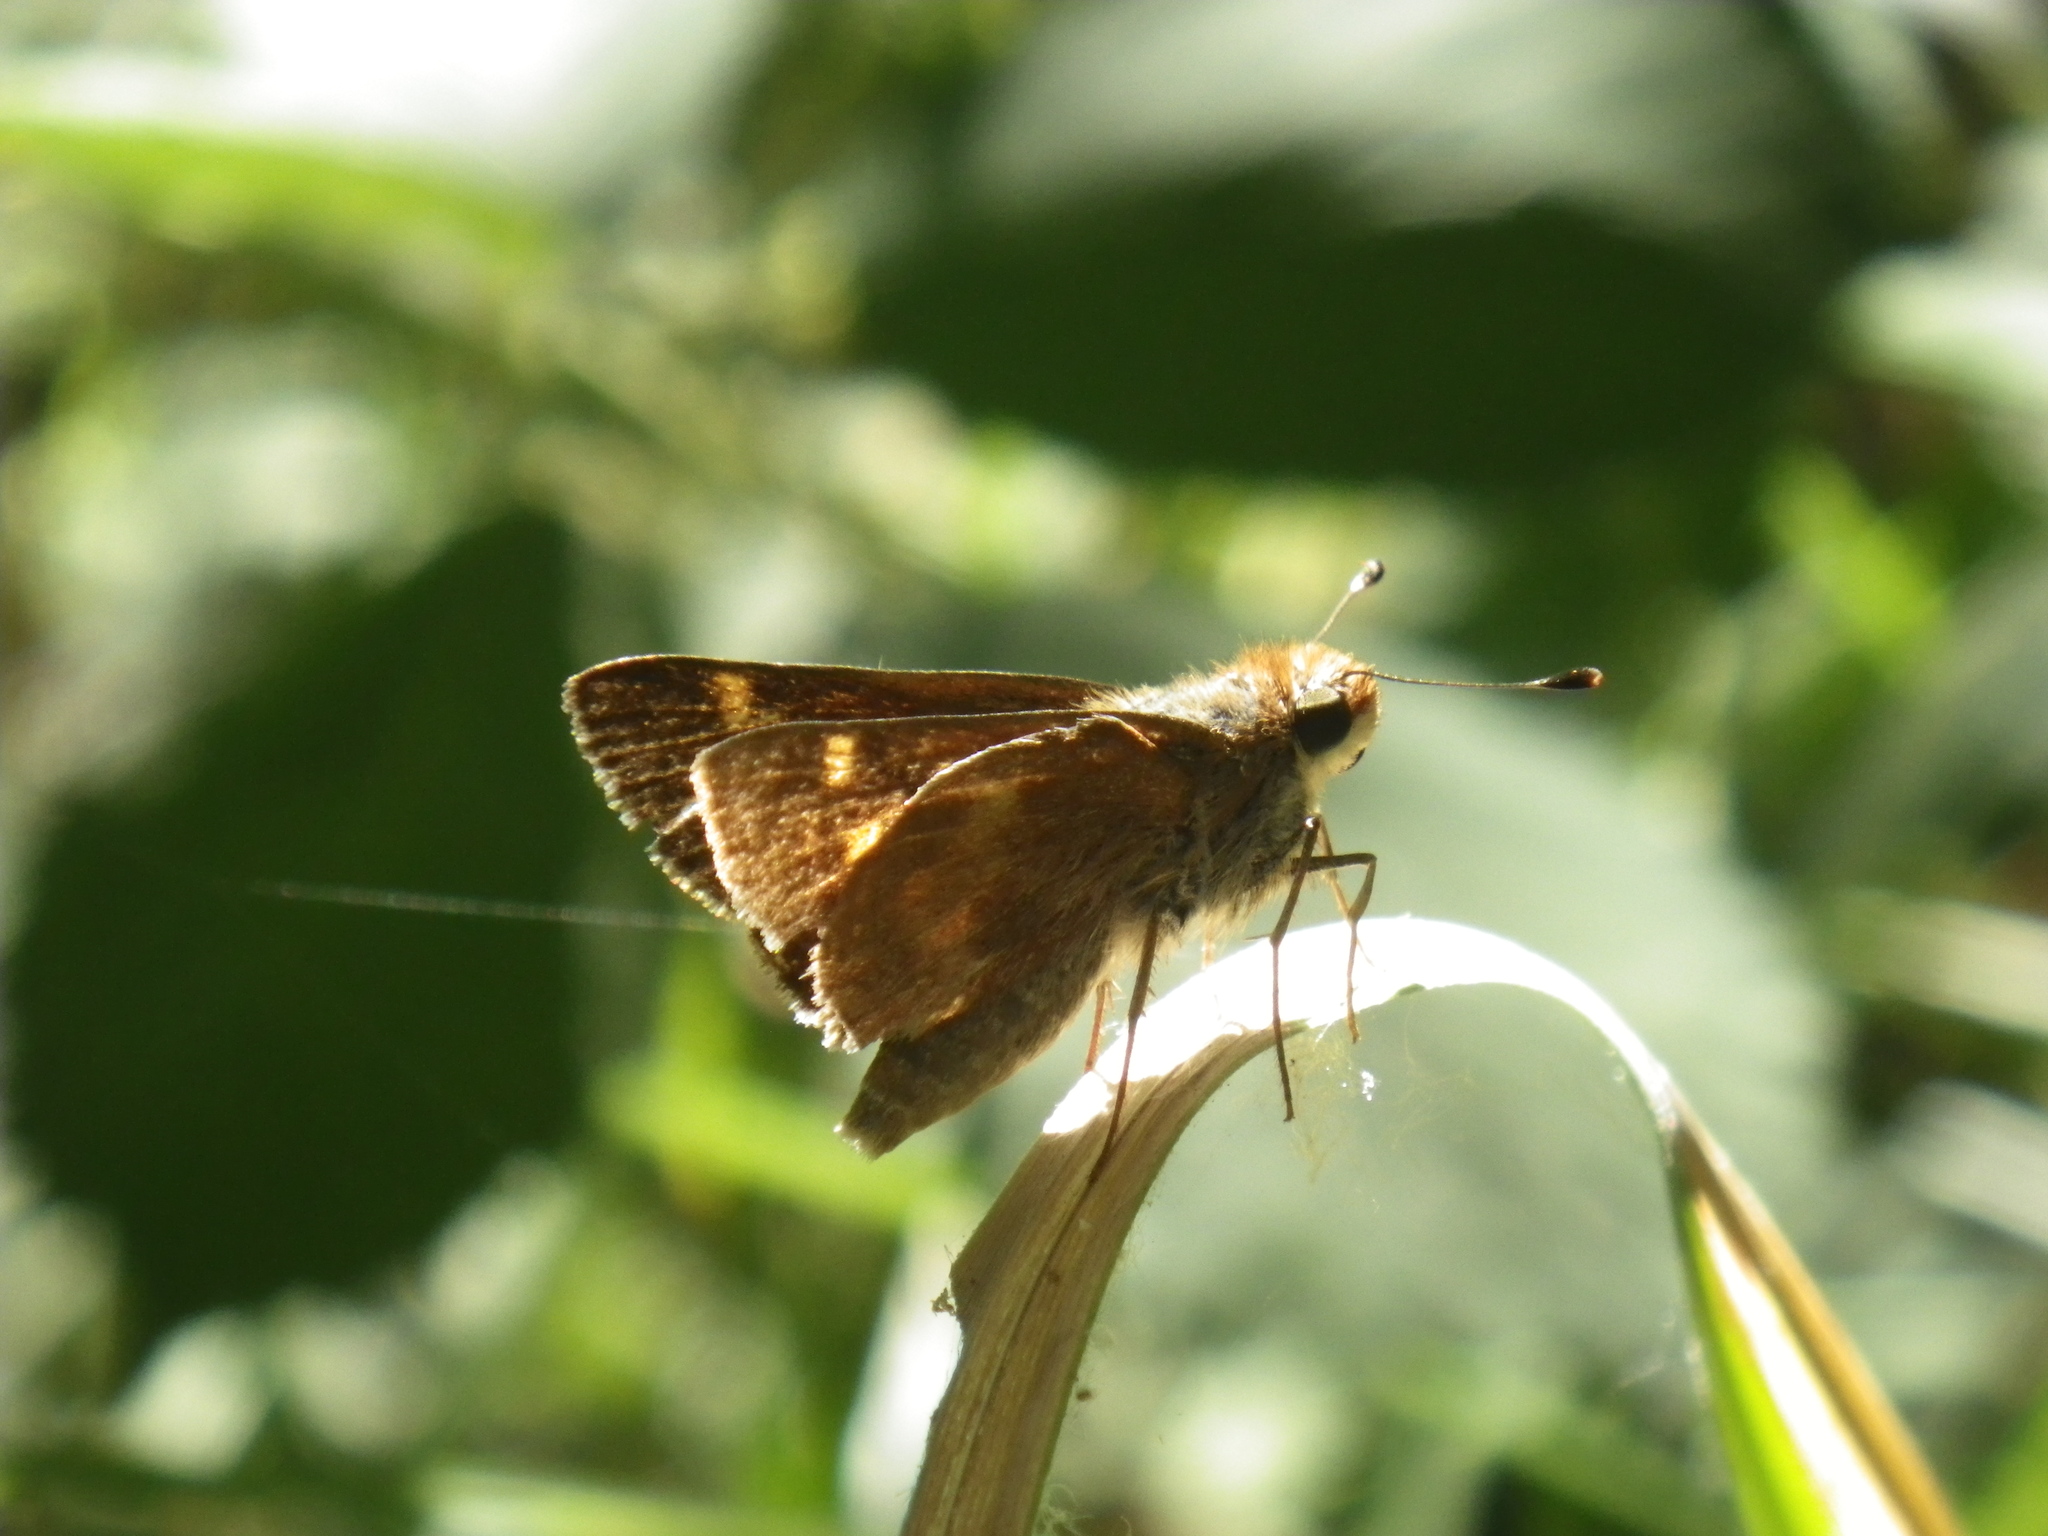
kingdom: Animalia
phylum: Arthropoda
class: Insecta
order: Lepidoptera
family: Hesperiidae
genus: Lon
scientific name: Lon melane
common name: Umber skipper
